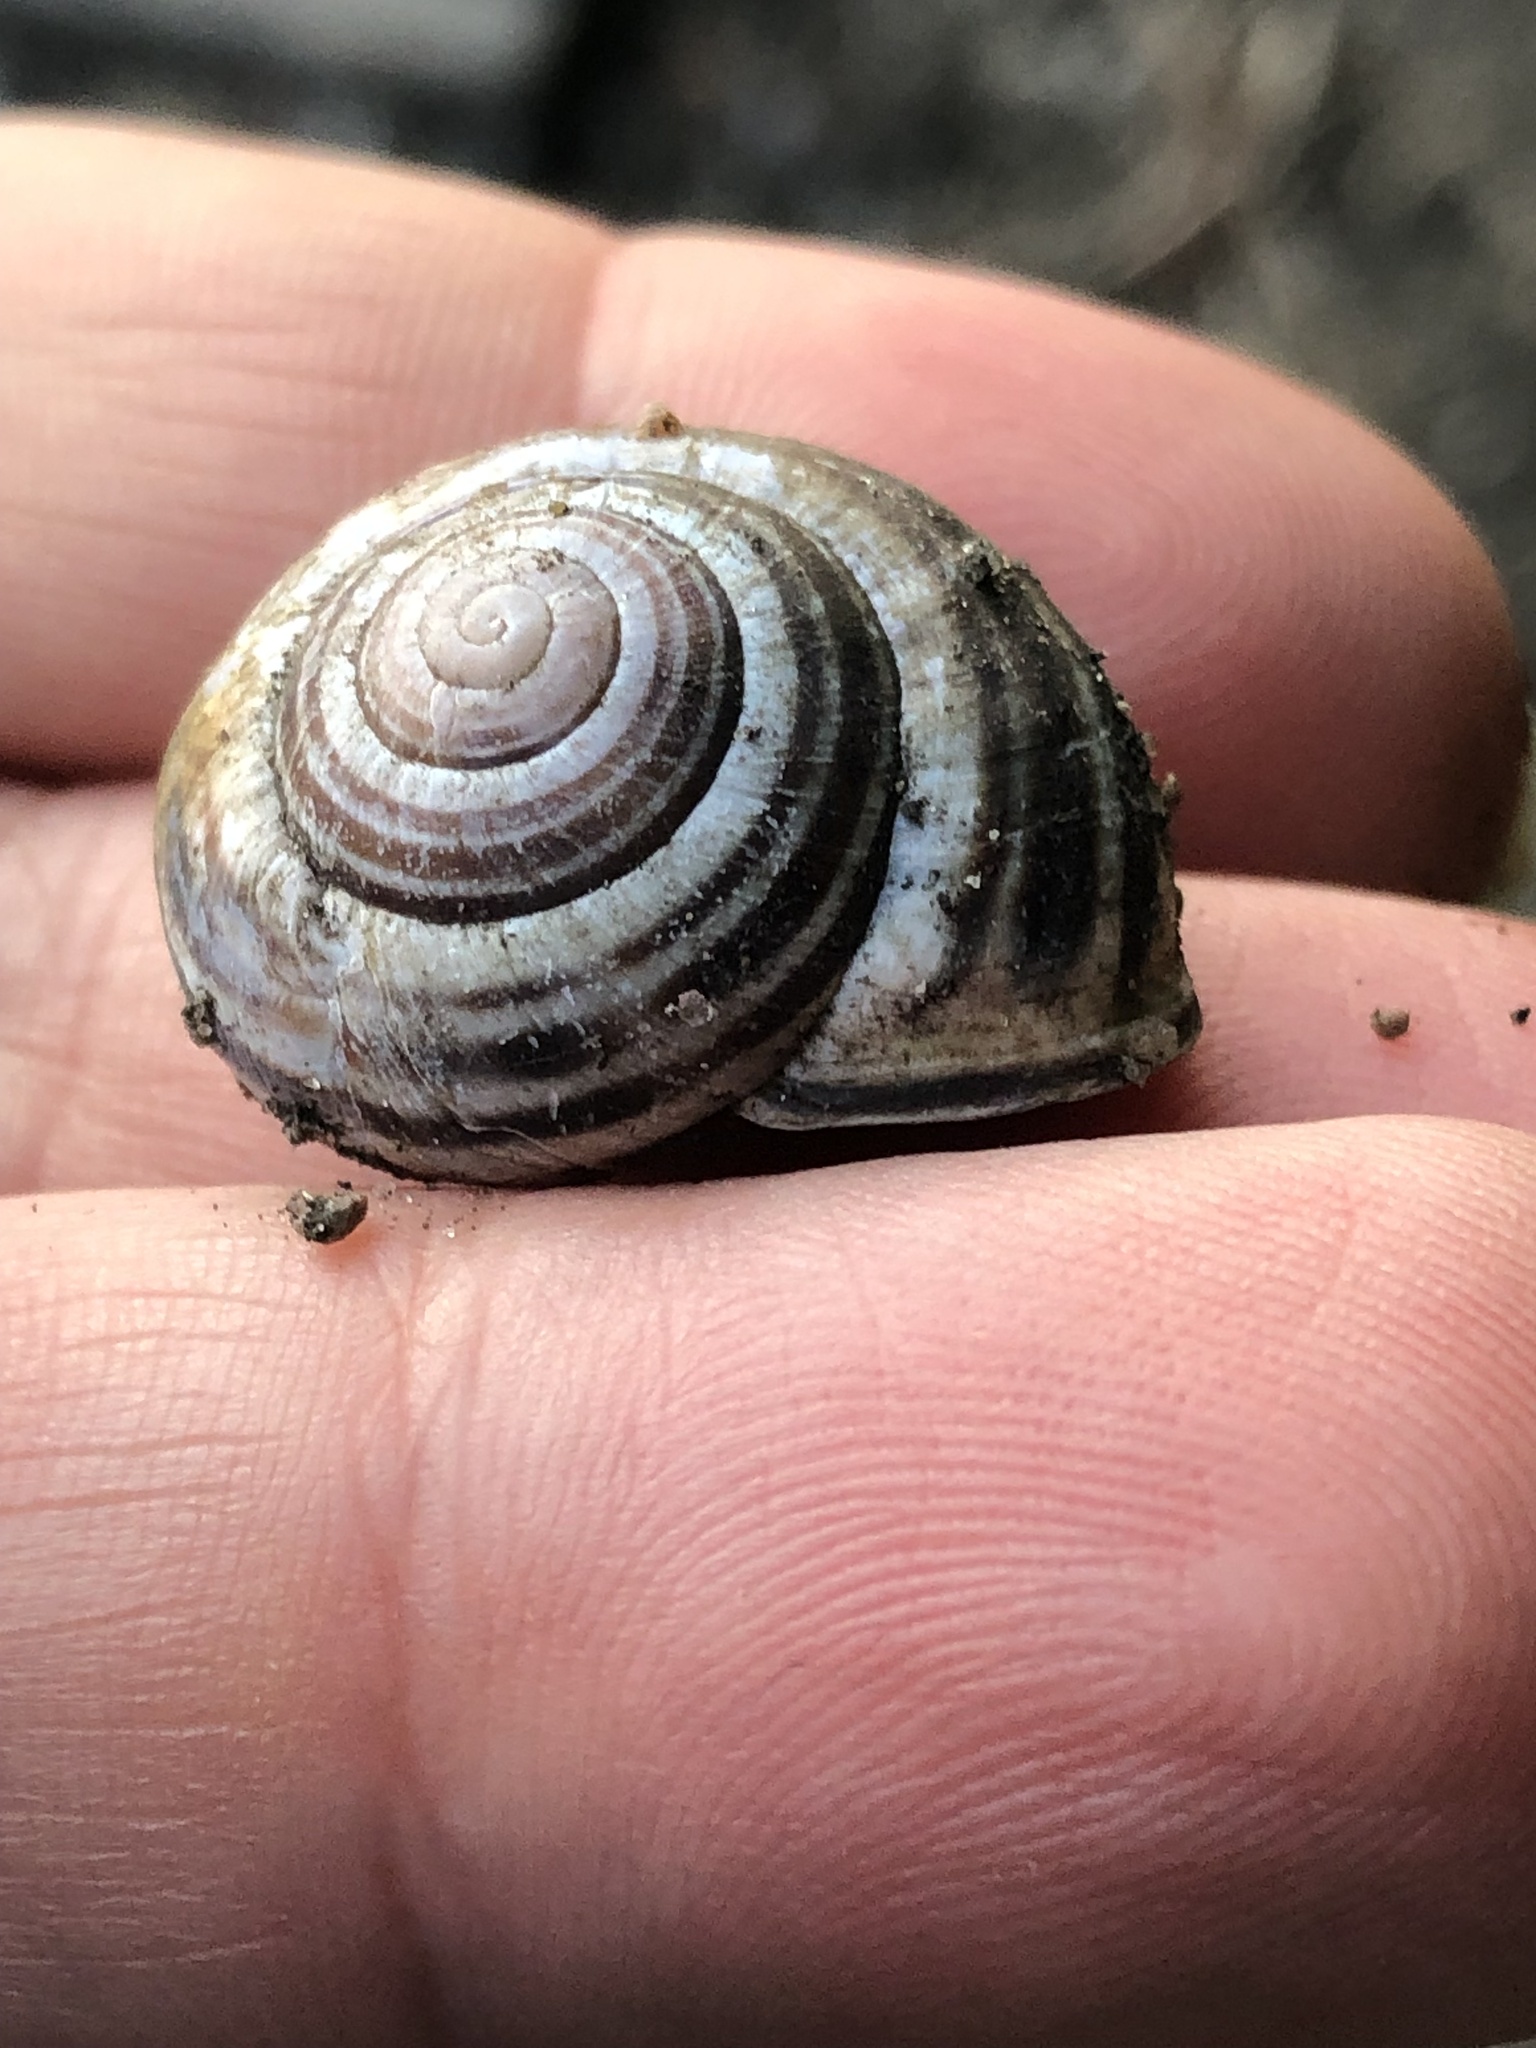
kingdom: Animalia
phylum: Mollusca
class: Gastropoda
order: Stylommatophora
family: Helicidae
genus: Cepaea
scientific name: Cepaea nemoralis
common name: Grovesnail
